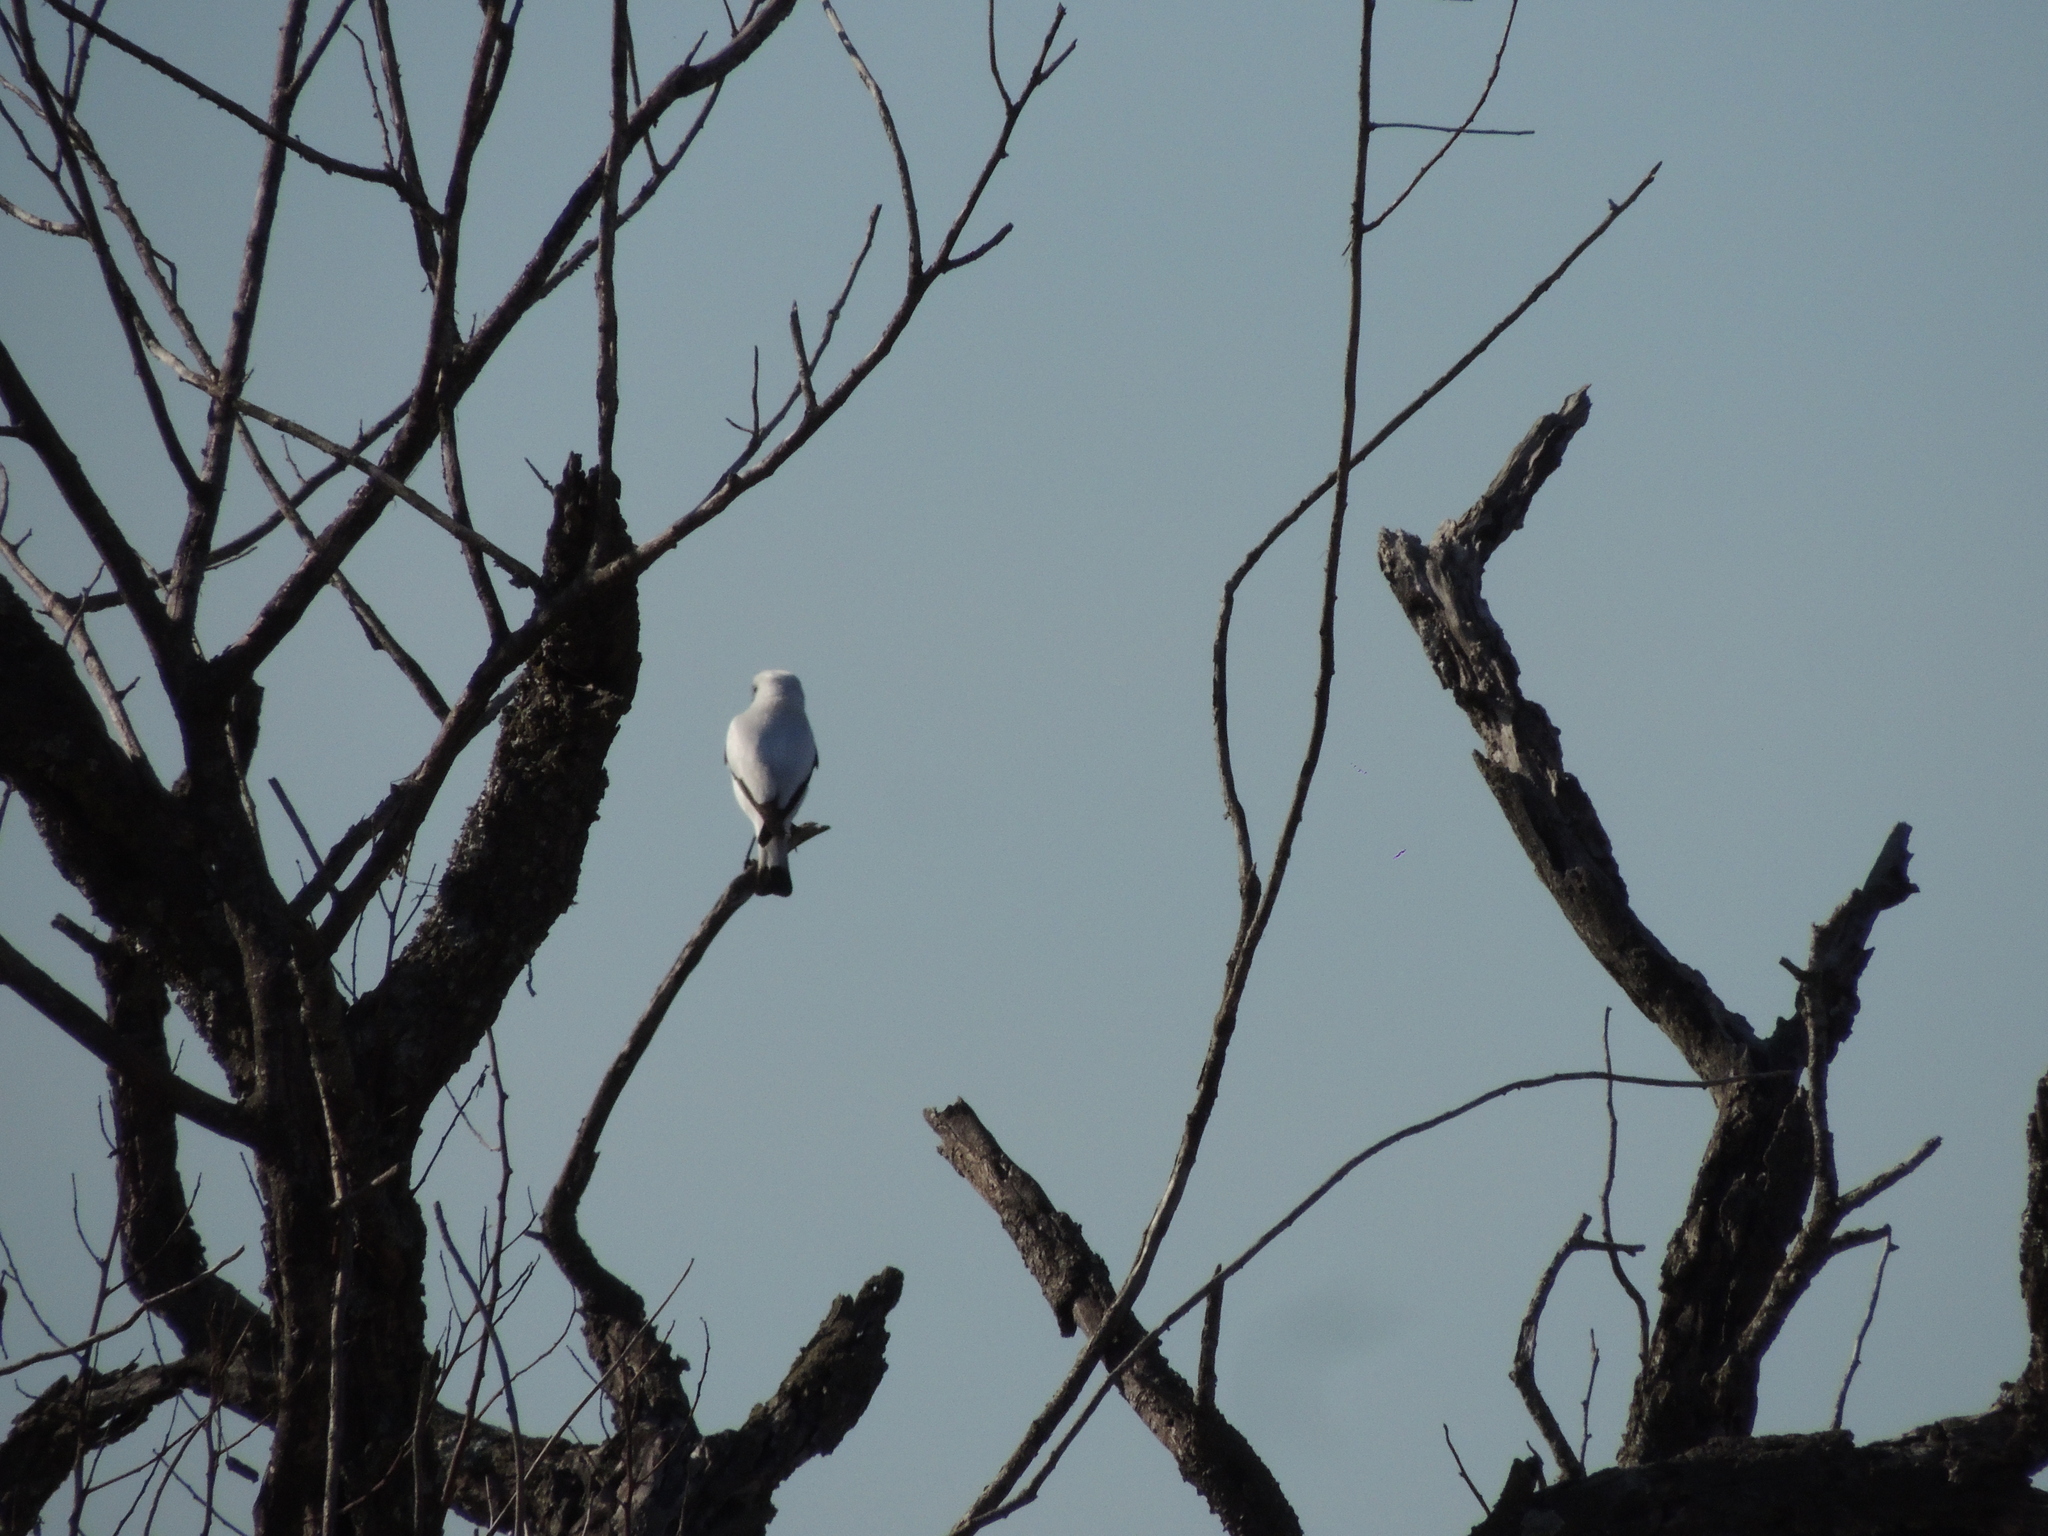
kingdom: Animalia
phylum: Chordata
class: Aves
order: Passeriformes
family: Tyrannidae
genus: Xolmis
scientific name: Xolmis irupero
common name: White monjita
